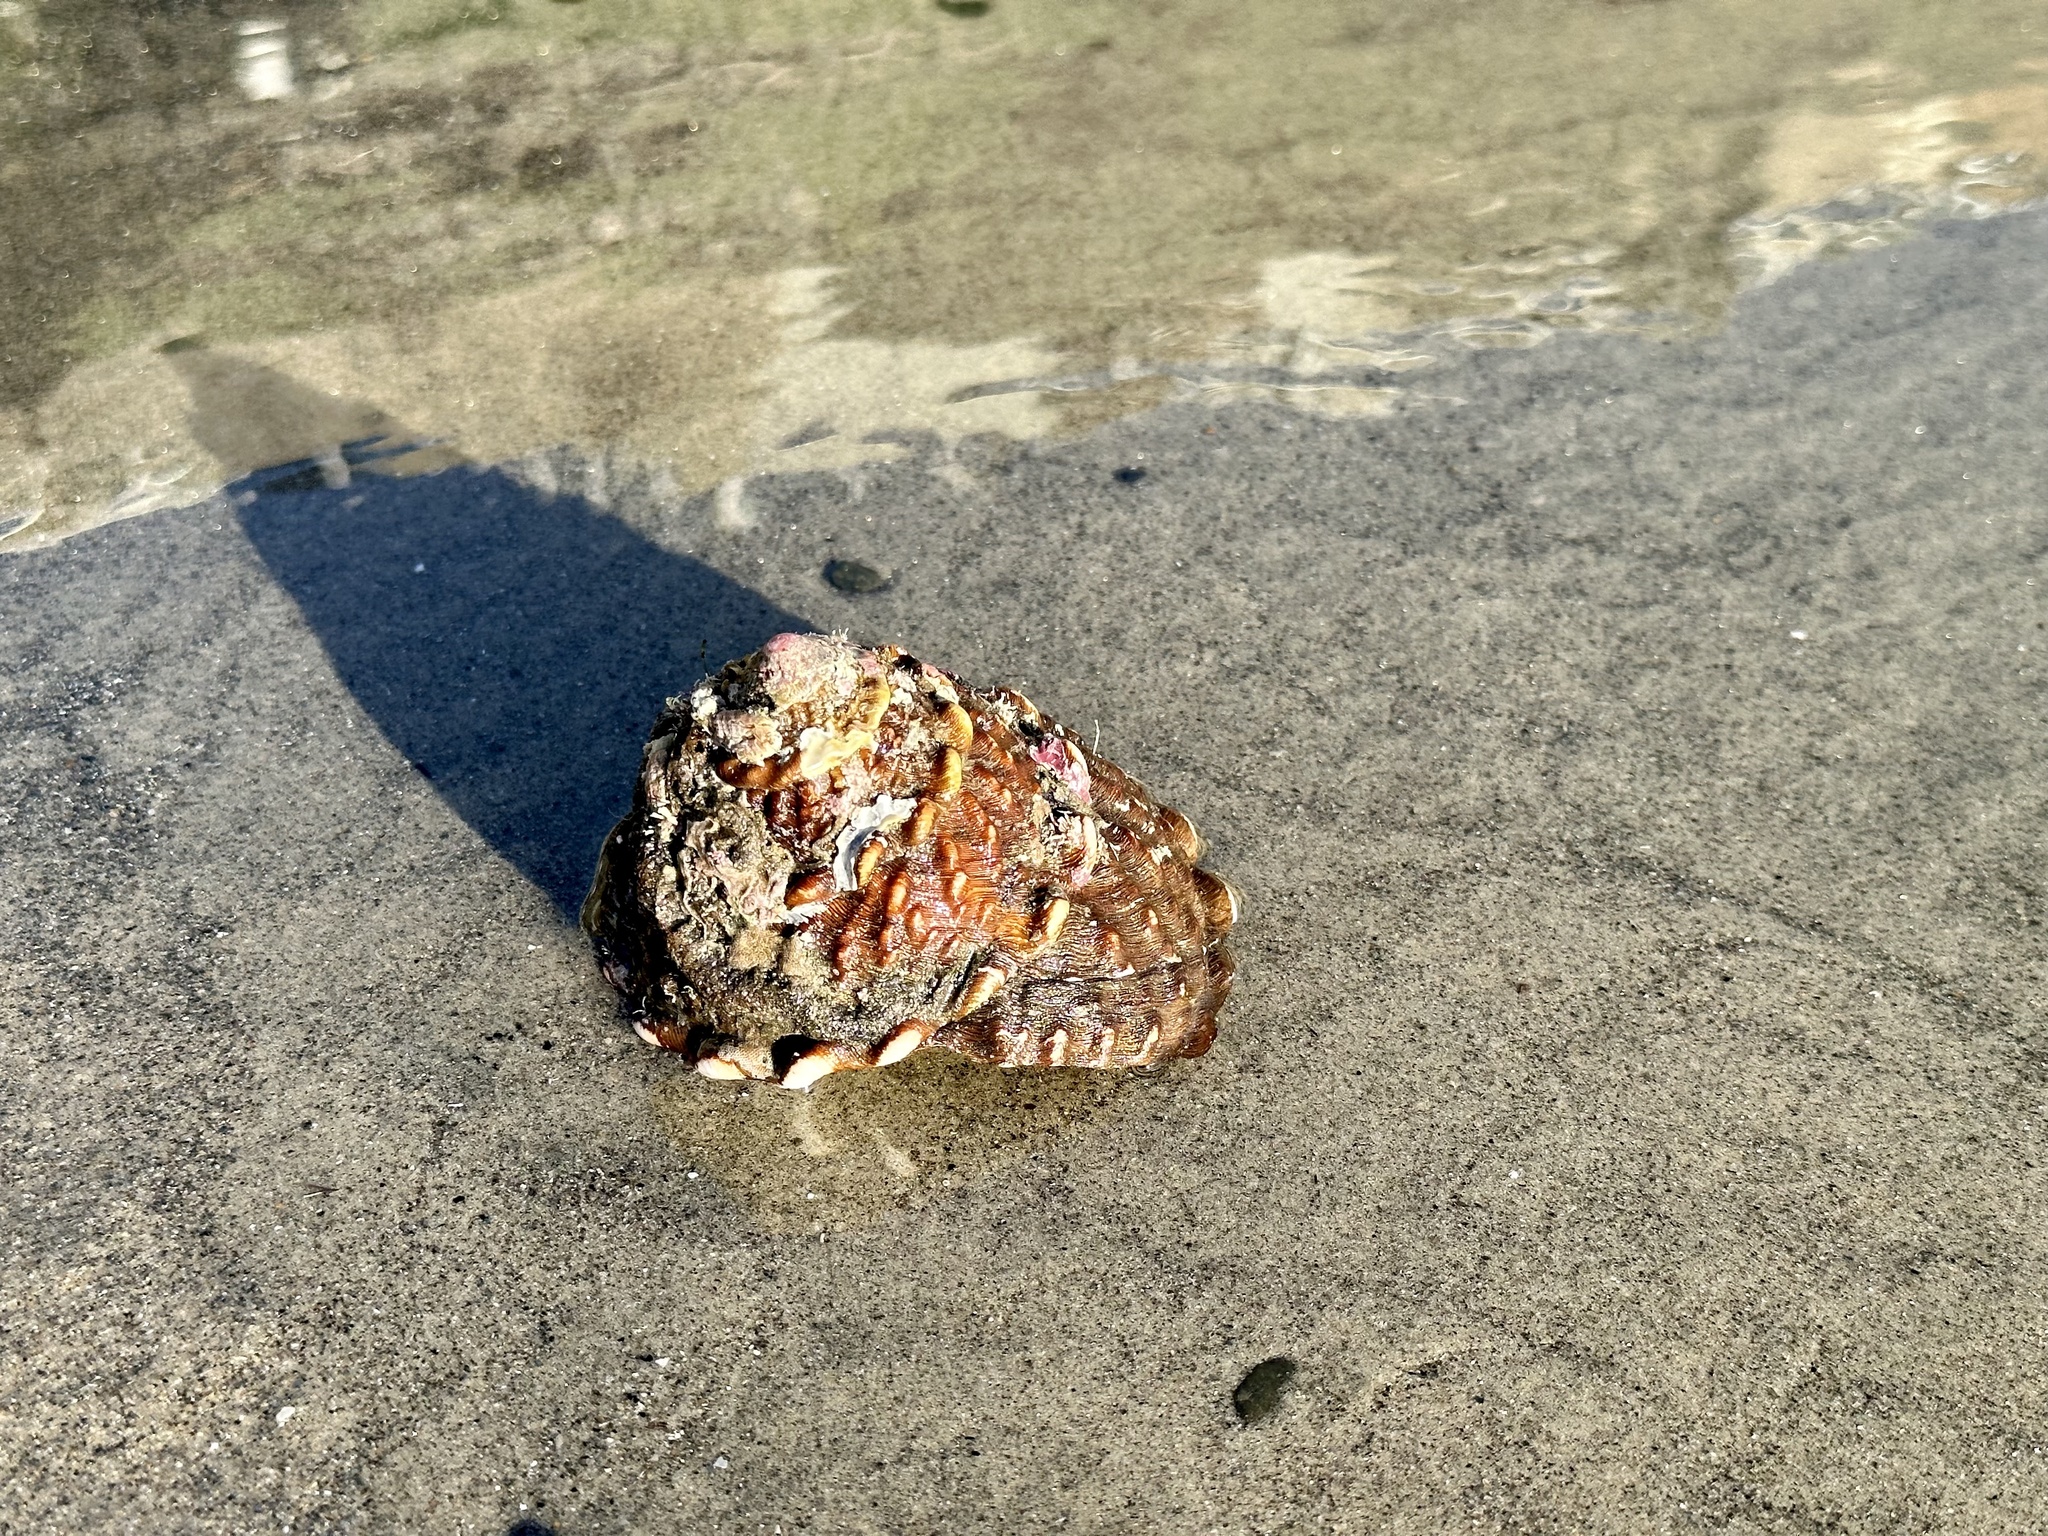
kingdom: Animalia
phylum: Mollusca
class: Gastropoda
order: Trochida
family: Turbinidae
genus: Megastraea
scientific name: Megastraea undosa
